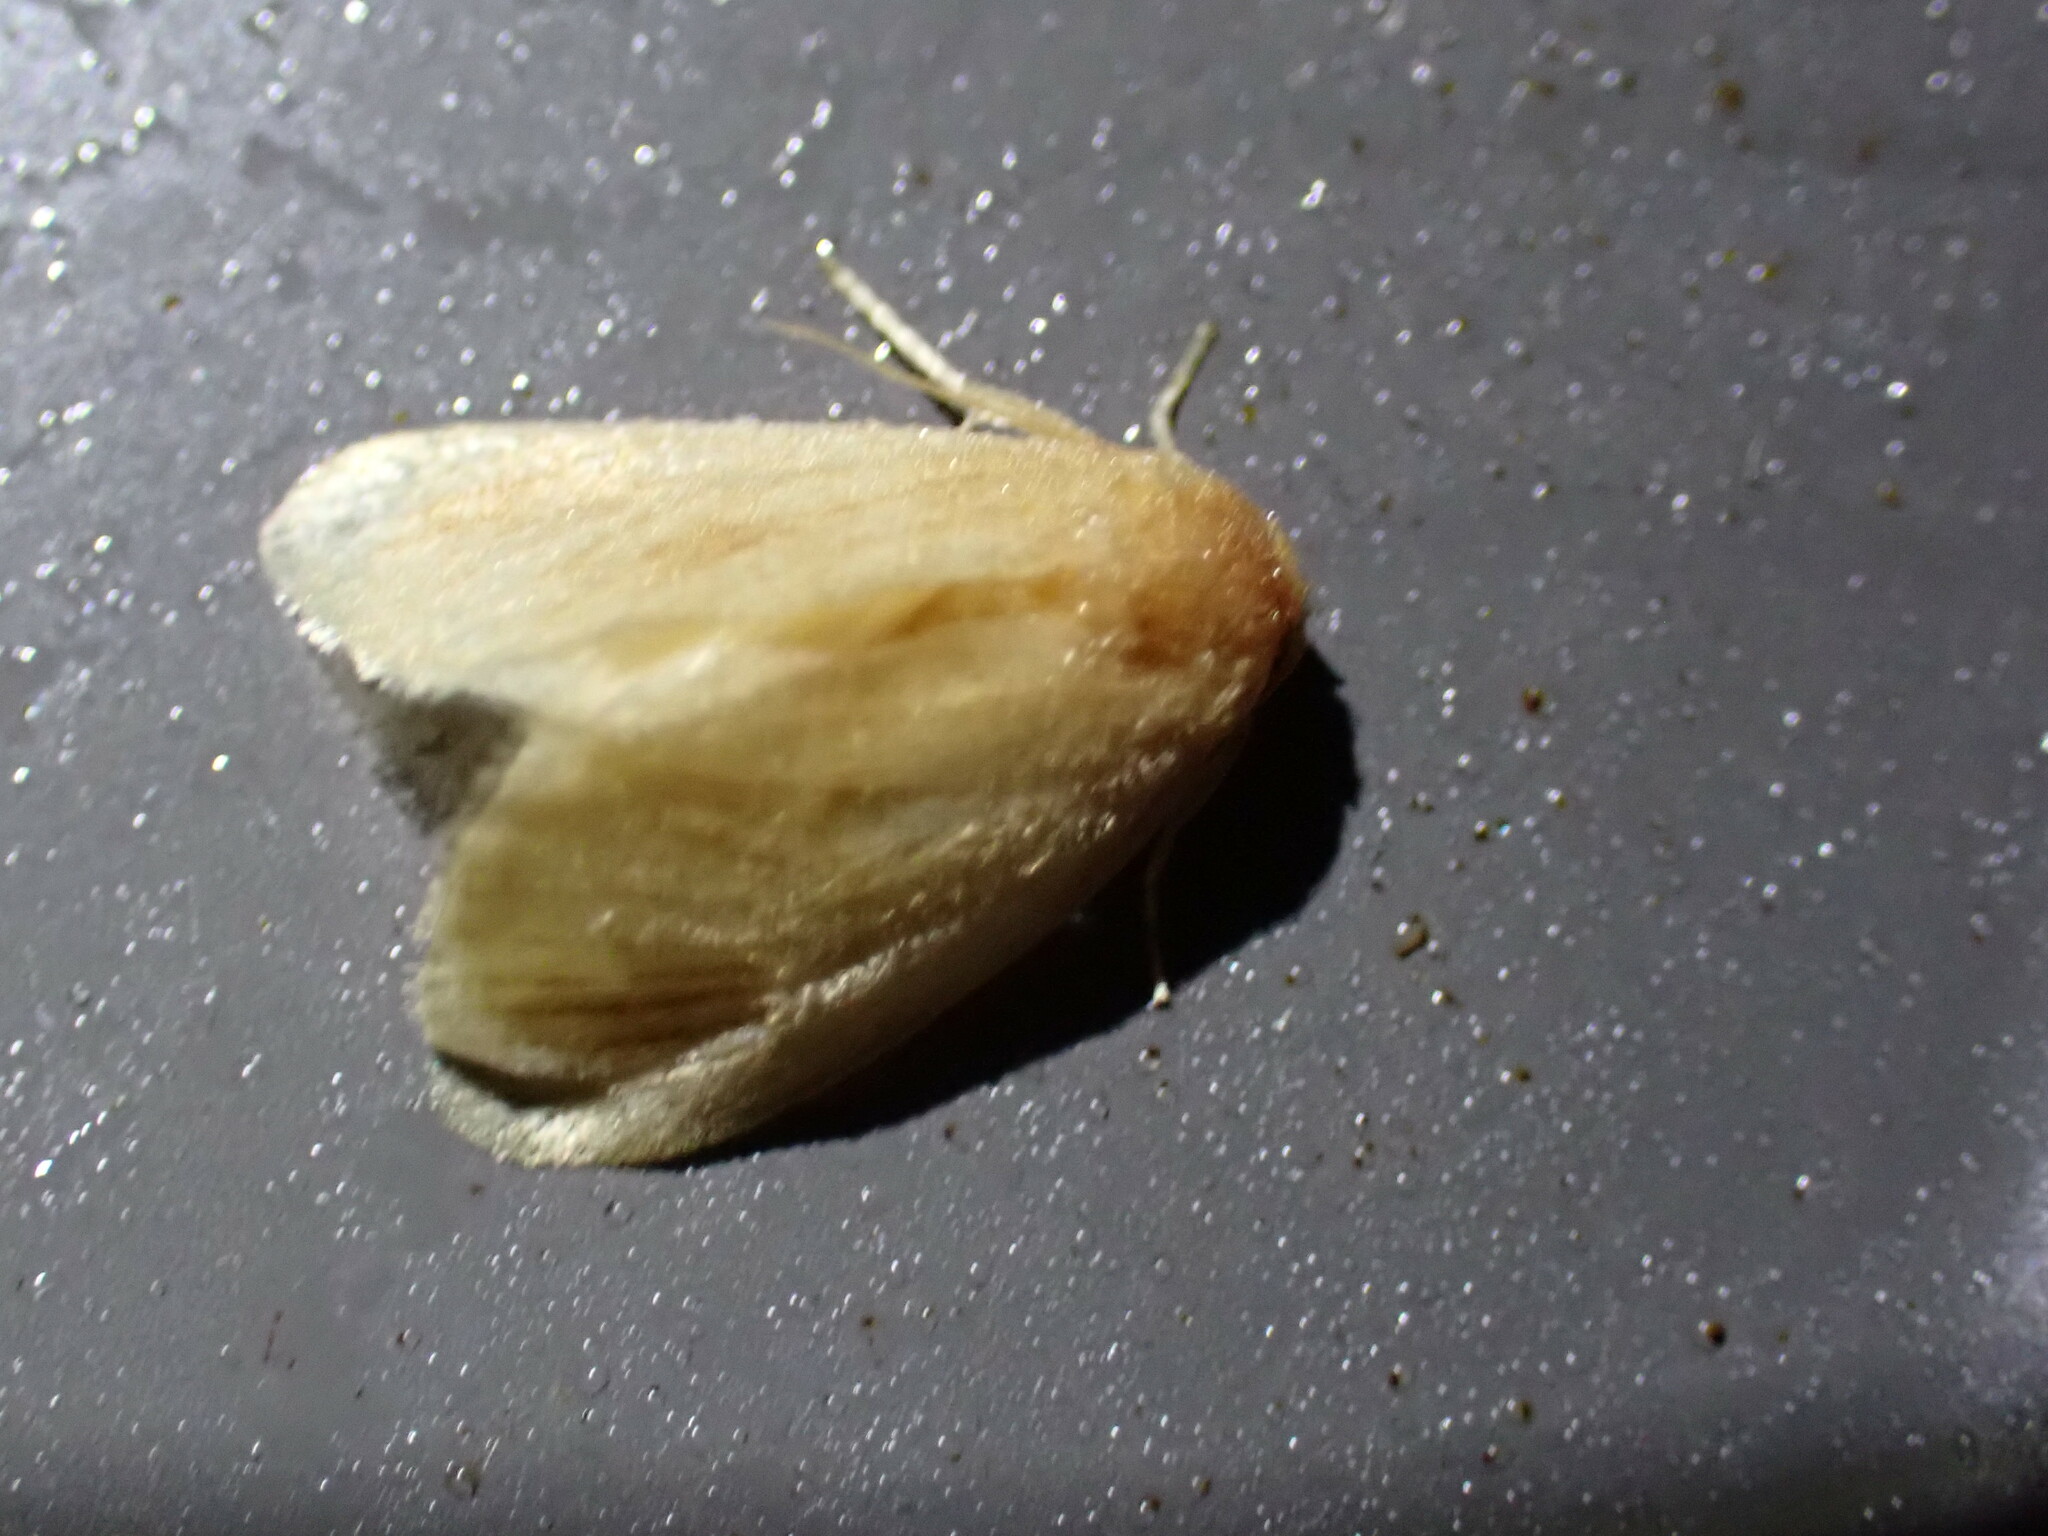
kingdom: Animalia
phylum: Arthropoda
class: Insecta
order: Lepidoptera
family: Limacodidae
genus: Tortricidia
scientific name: Tortricidia testacea
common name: Early button slug moth
